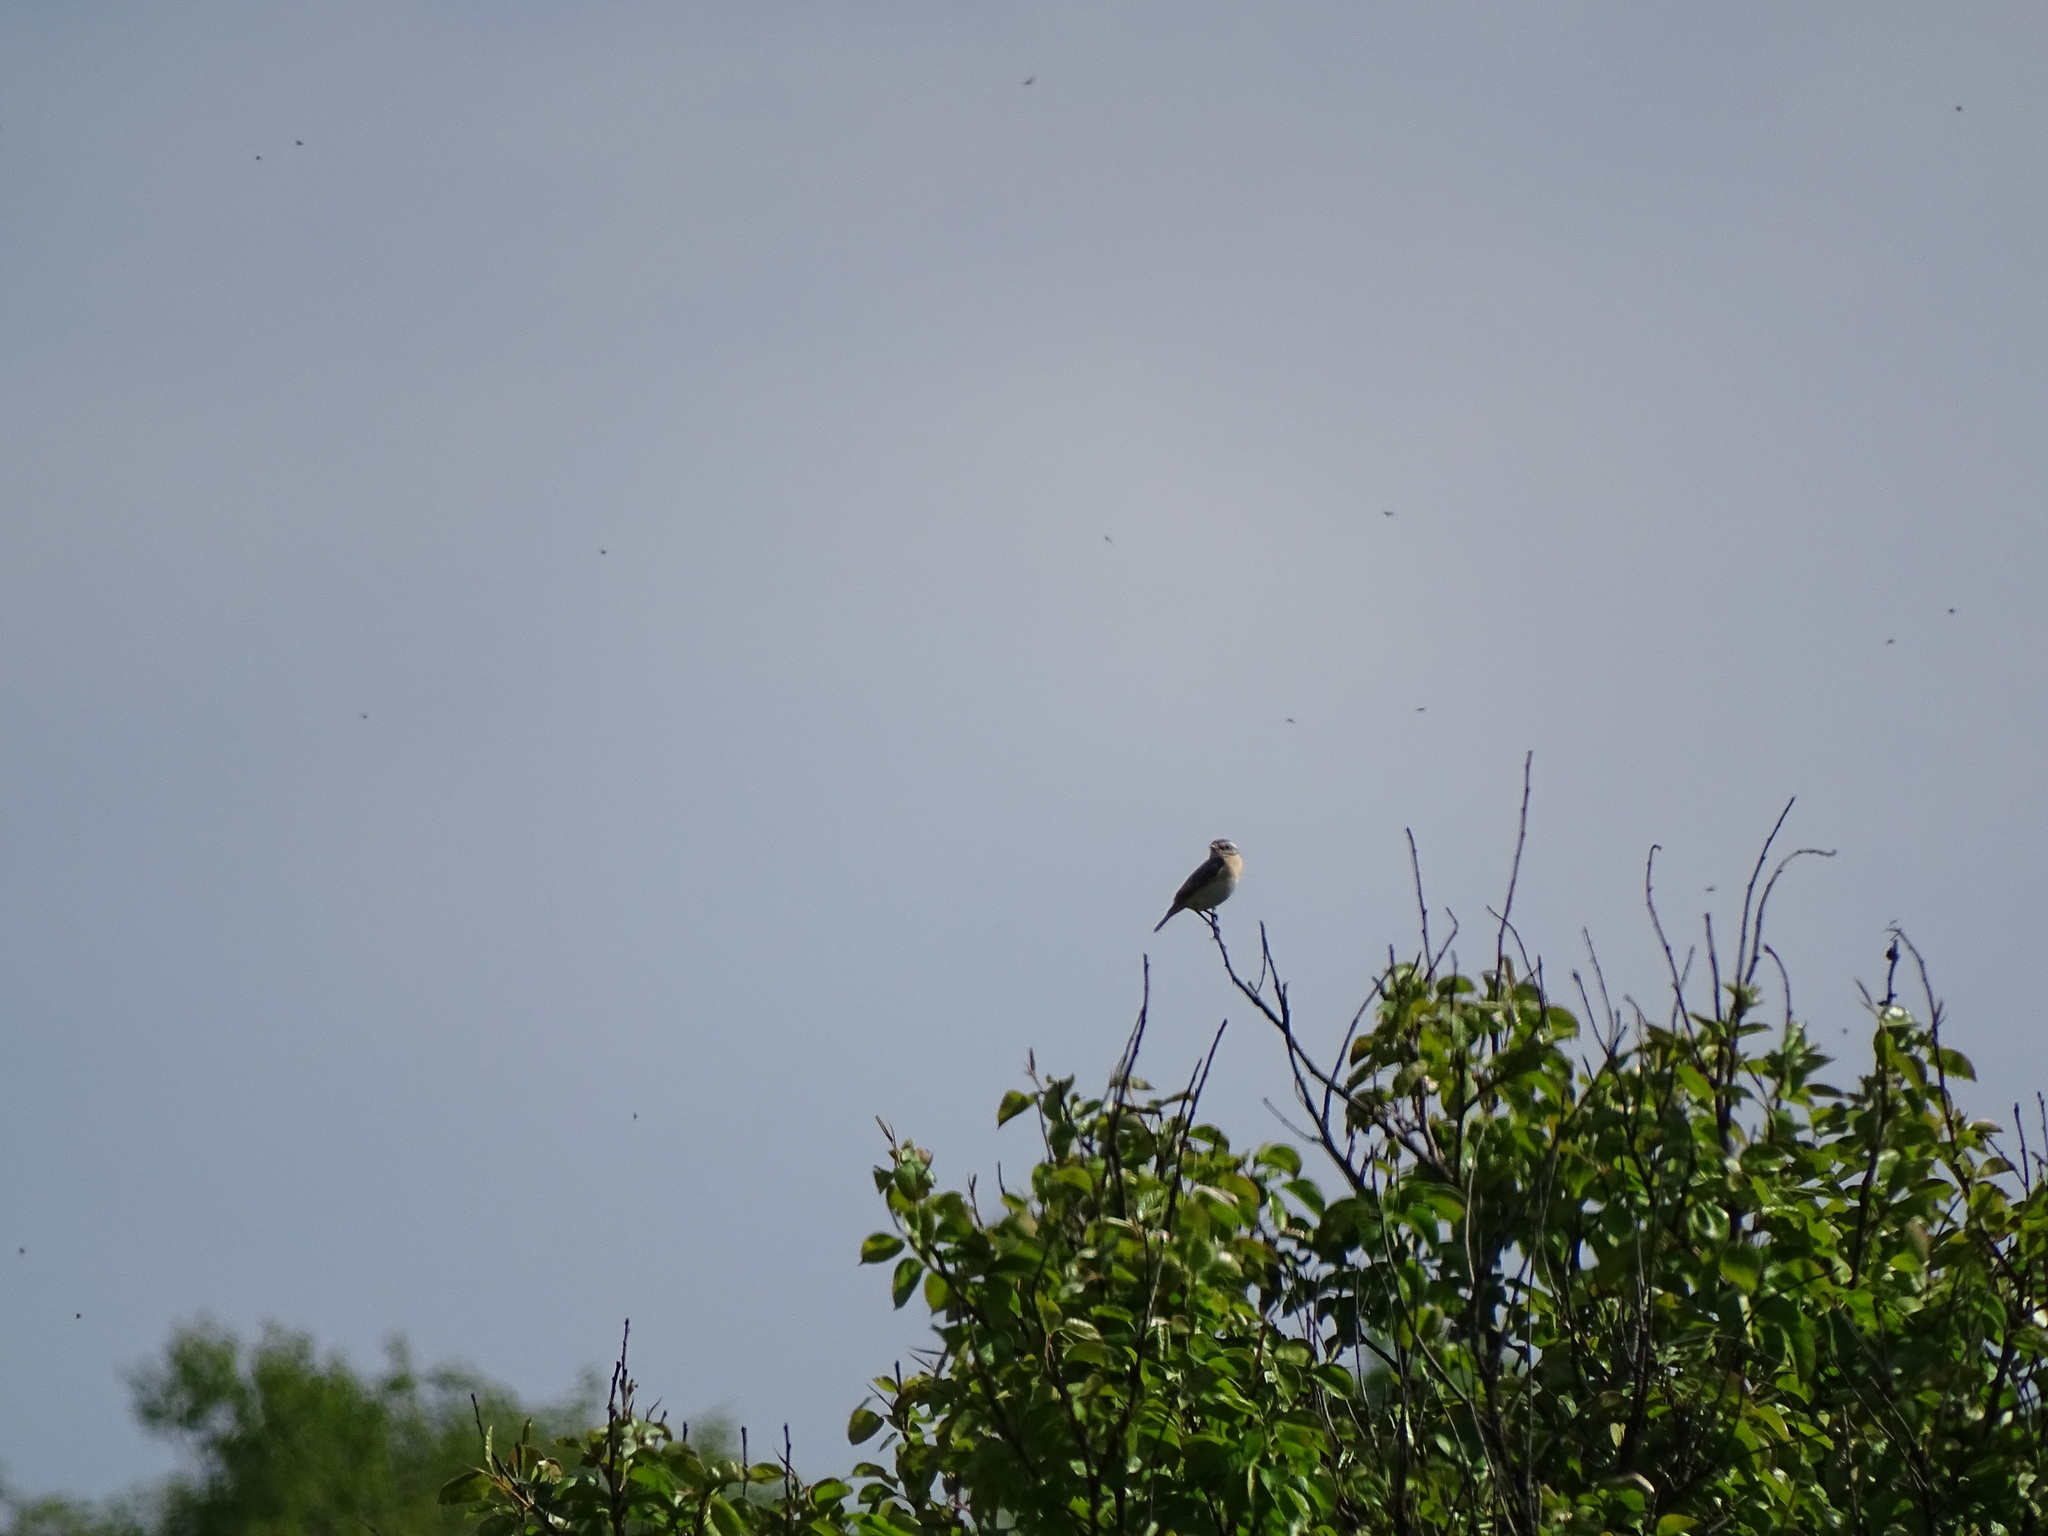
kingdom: Animalia
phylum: Chordata
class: Aves
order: Passeriformes
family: Muscicapidae
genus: Saxicola
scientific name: Saxicola rubetra
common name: Whinchat
